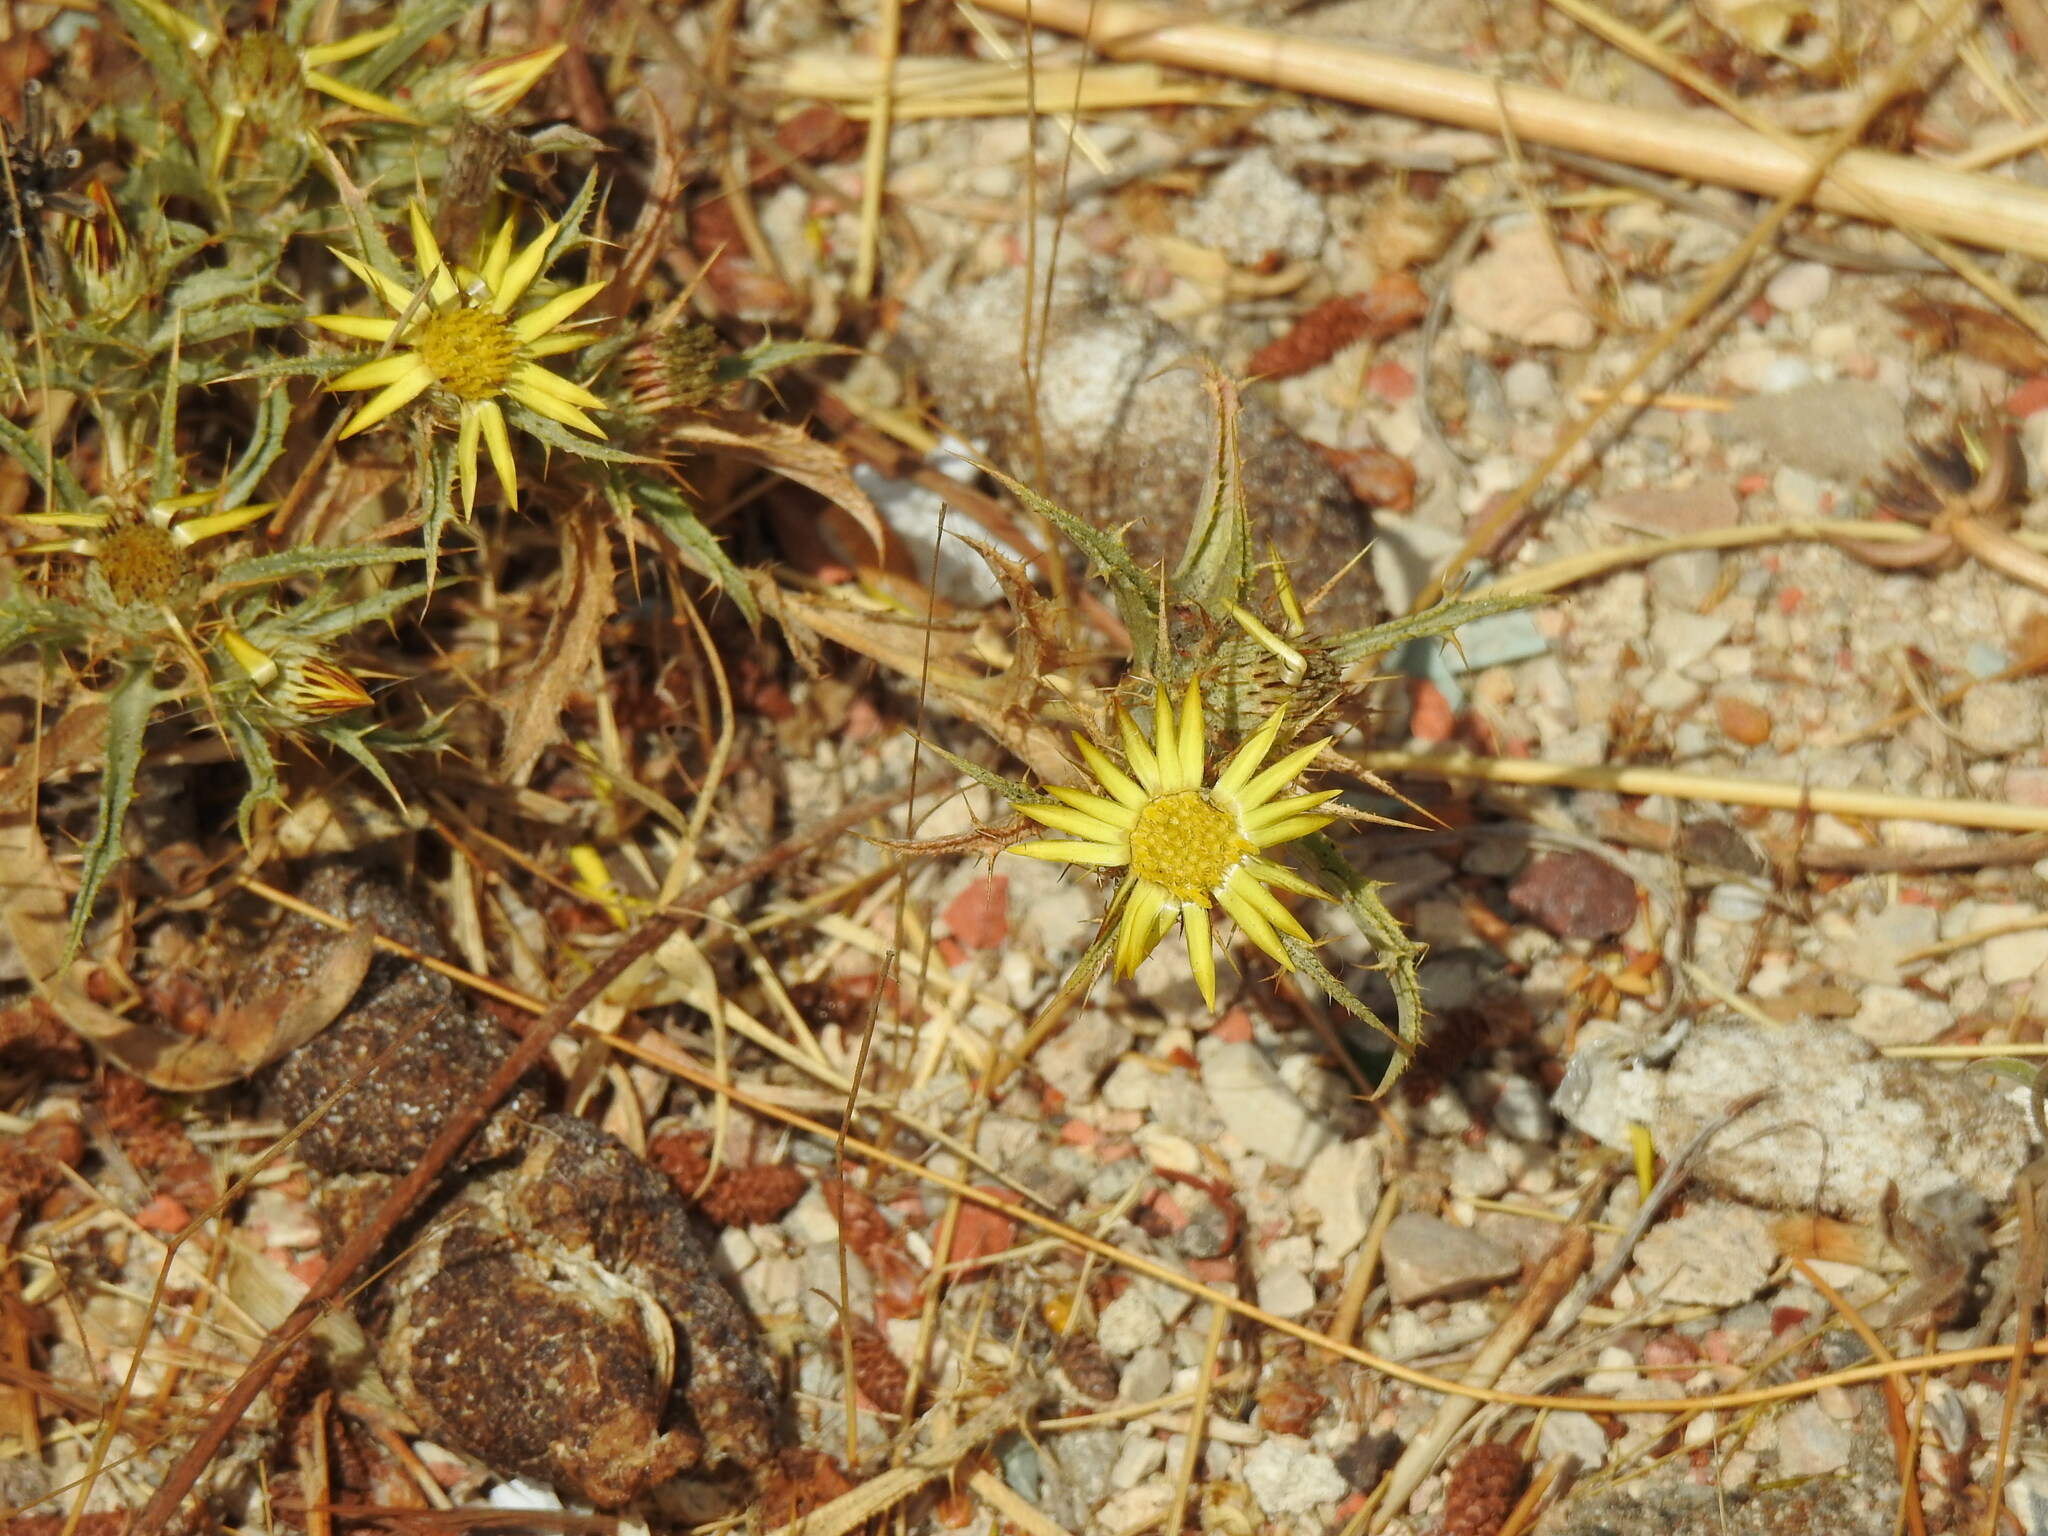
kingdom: Plantae
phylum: Tracheophyta
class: Magnoliopsida
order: Asterales
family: Asteraceae
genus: Carlina
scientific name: Carlina racemosa
